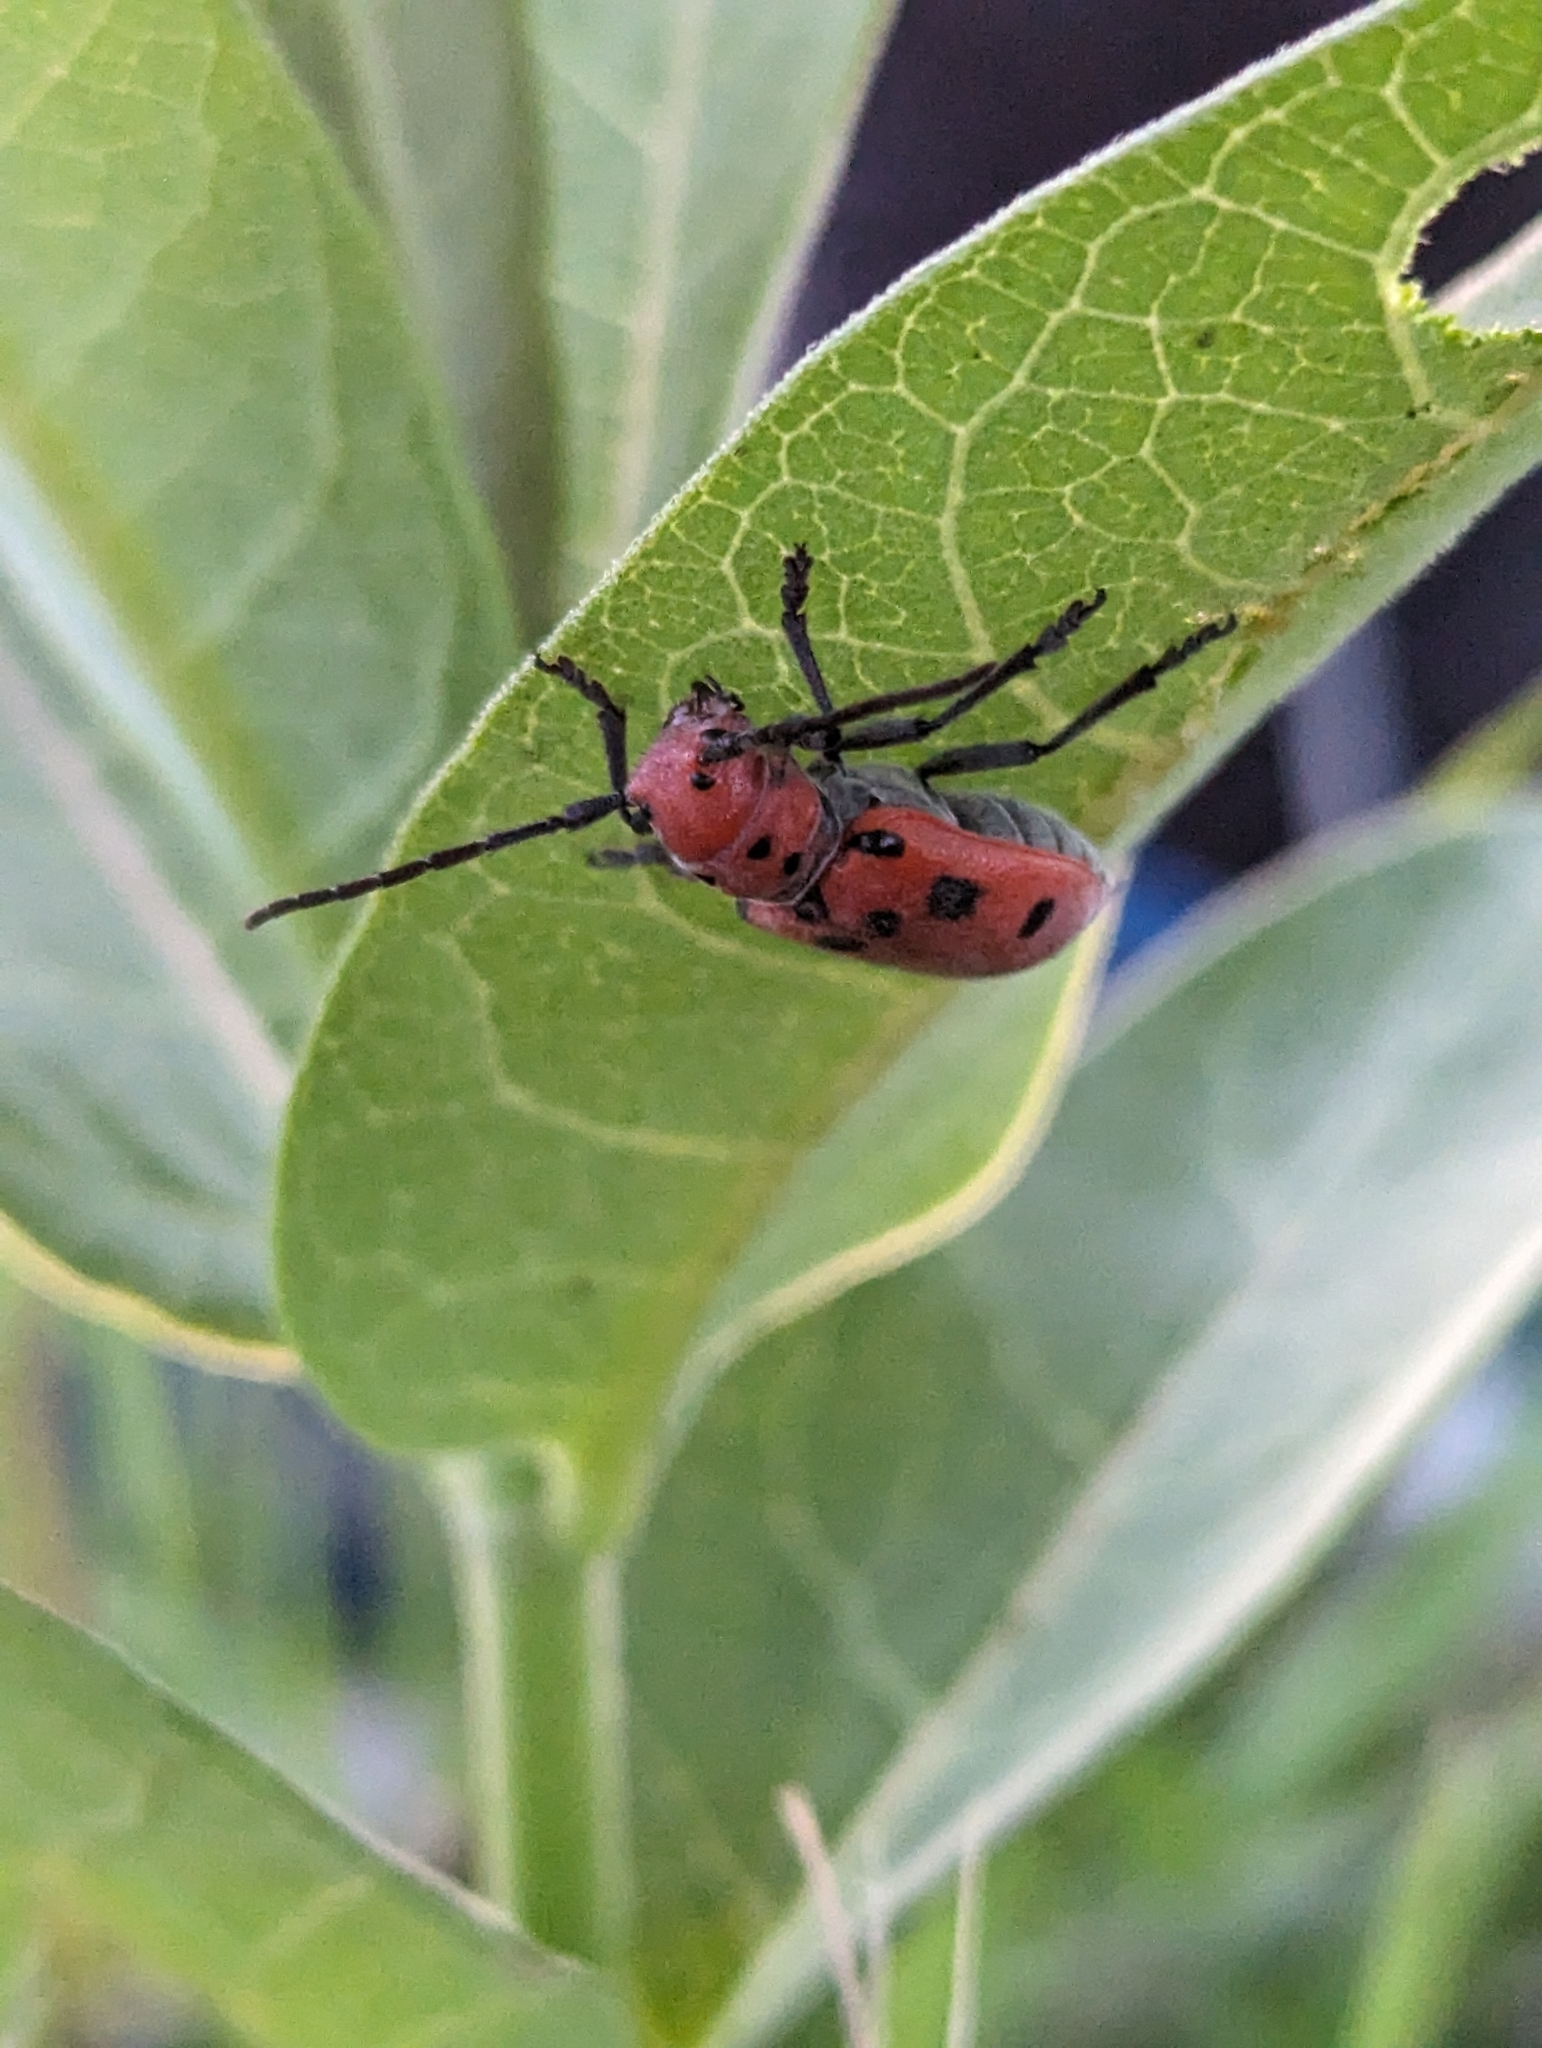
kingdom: Animalia
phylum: Arthropoda
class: Insecta
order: Coleoptera
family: Cerambycidae
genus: Tetraopes
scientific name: Tetraopes tetrophthalmus
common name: Red milkweed beetle
